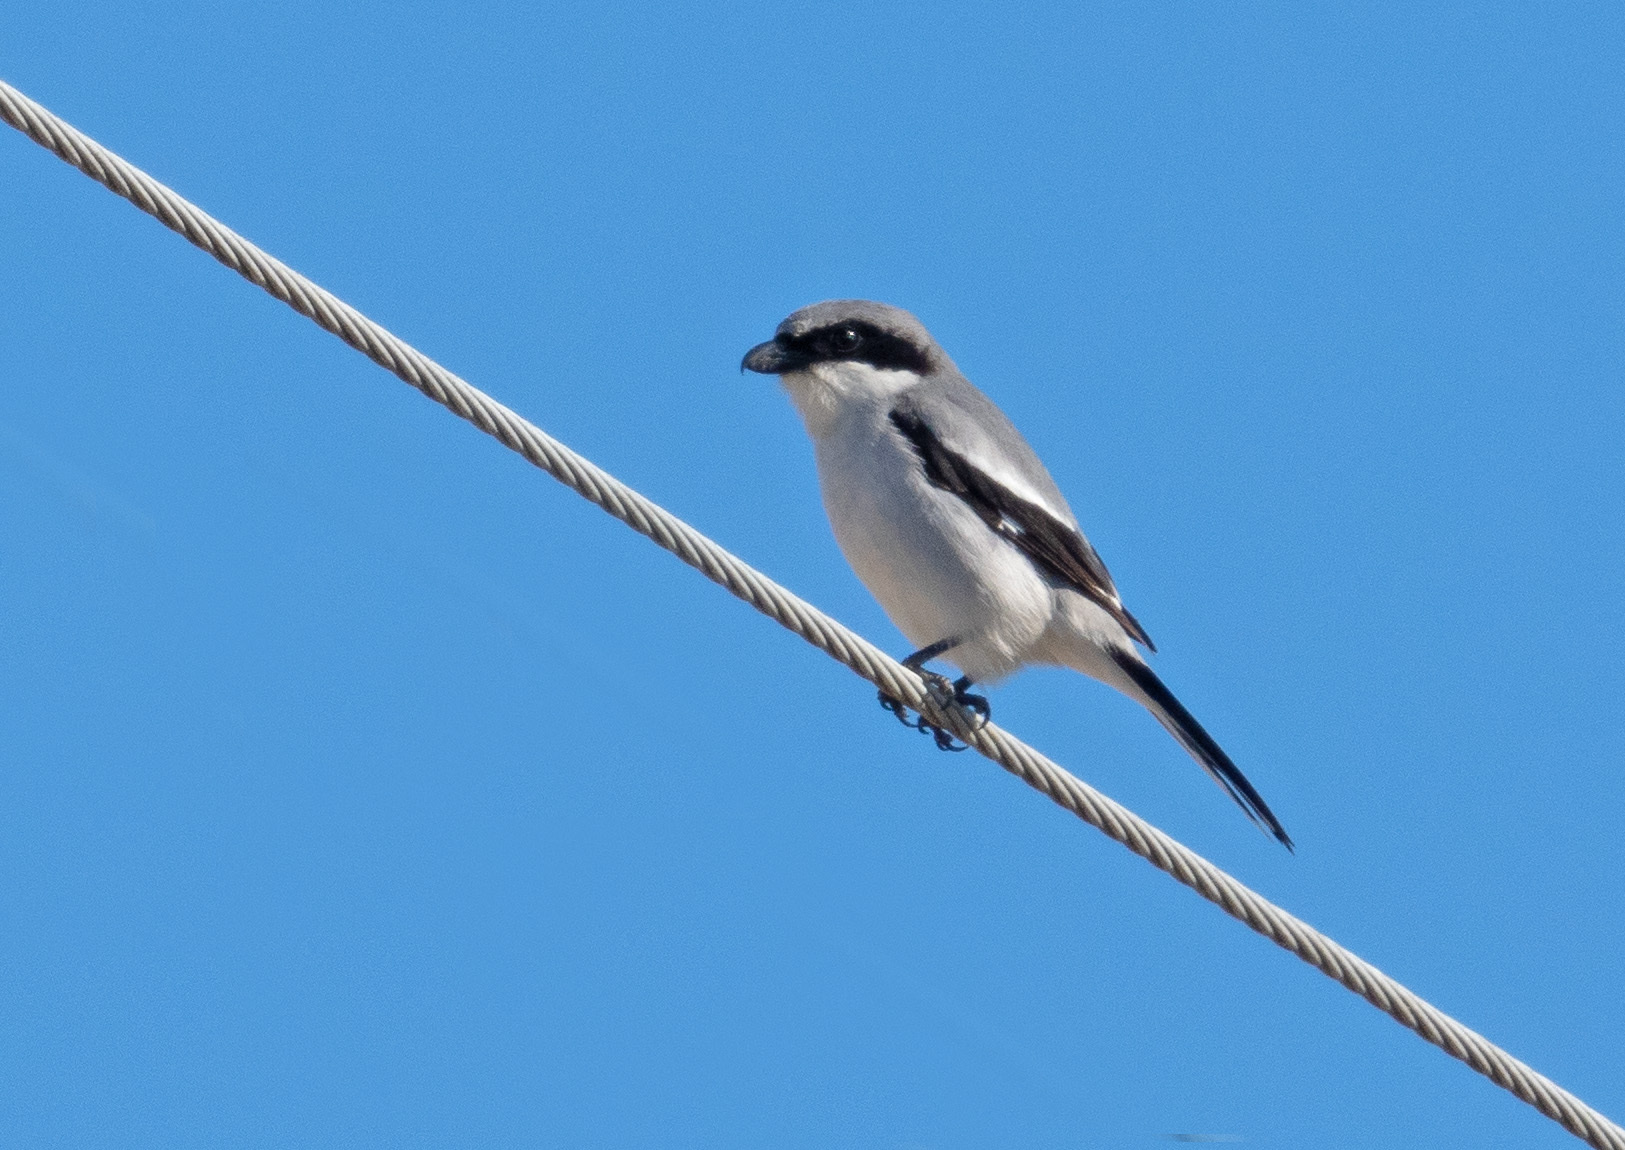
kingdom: Animalia
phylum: Chordata
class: Aves
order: Passeriformes
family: Laniidae
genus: Lanius
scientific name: Lanius ludovicianus
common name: Loggerhead shrike
